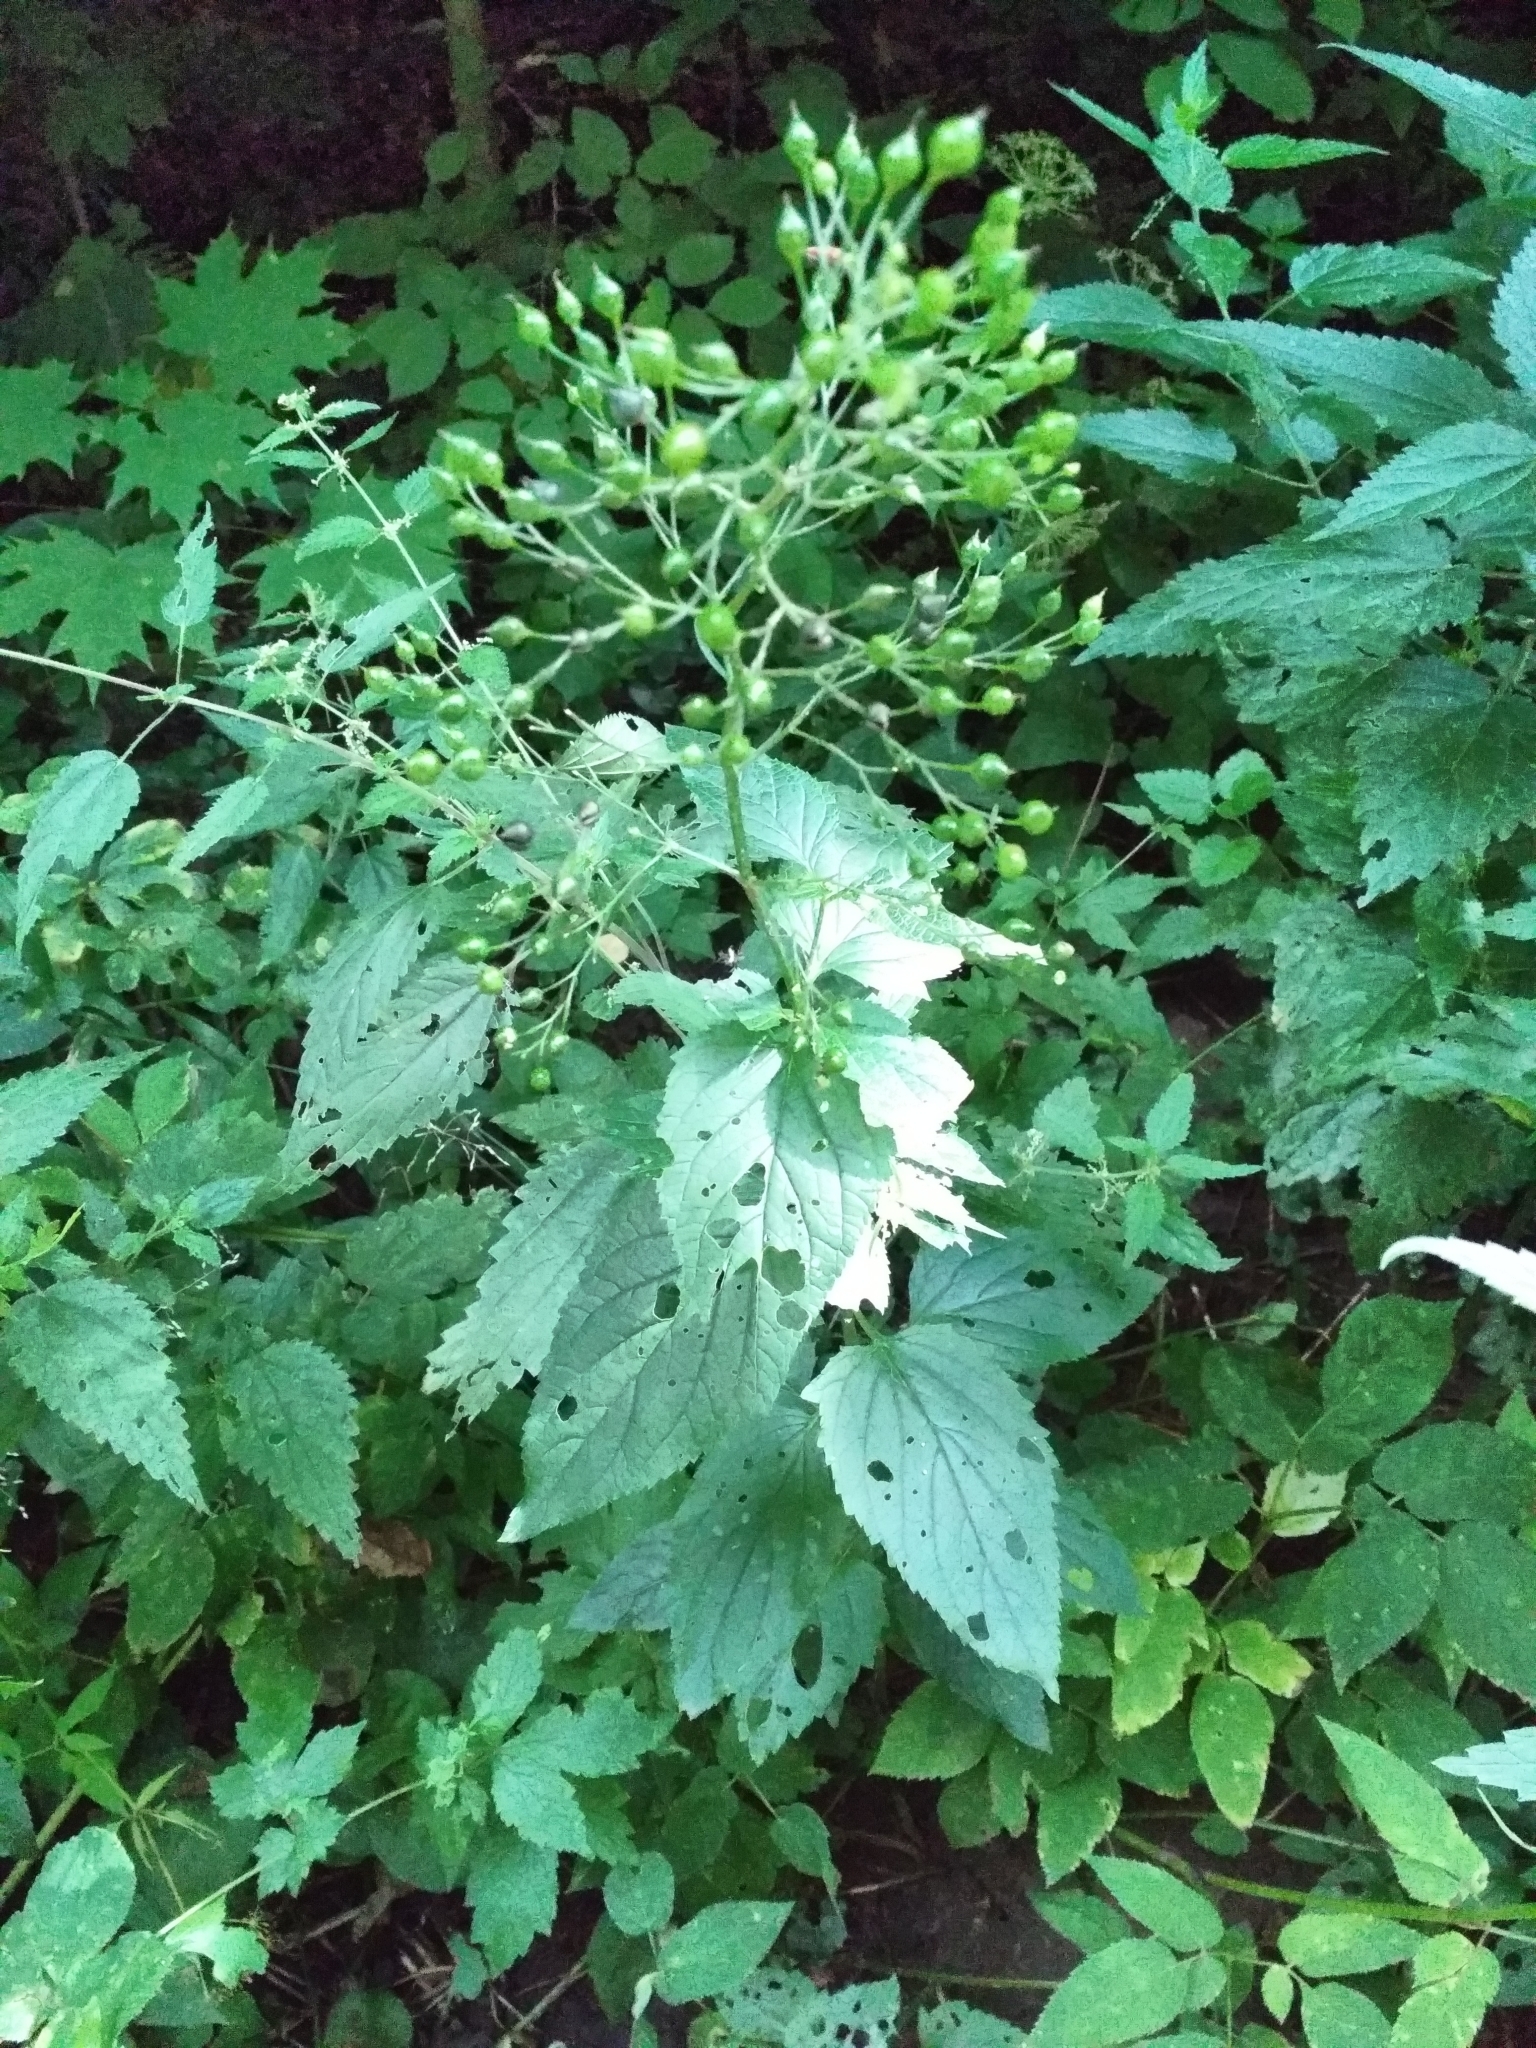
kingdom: Plantae
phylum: Tracheophyta
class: Magnoliopsida
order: Lamiales
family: Scrophulariaceae
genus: Scrophularia
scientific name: Scrophularia nodosa
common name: Common figwort
